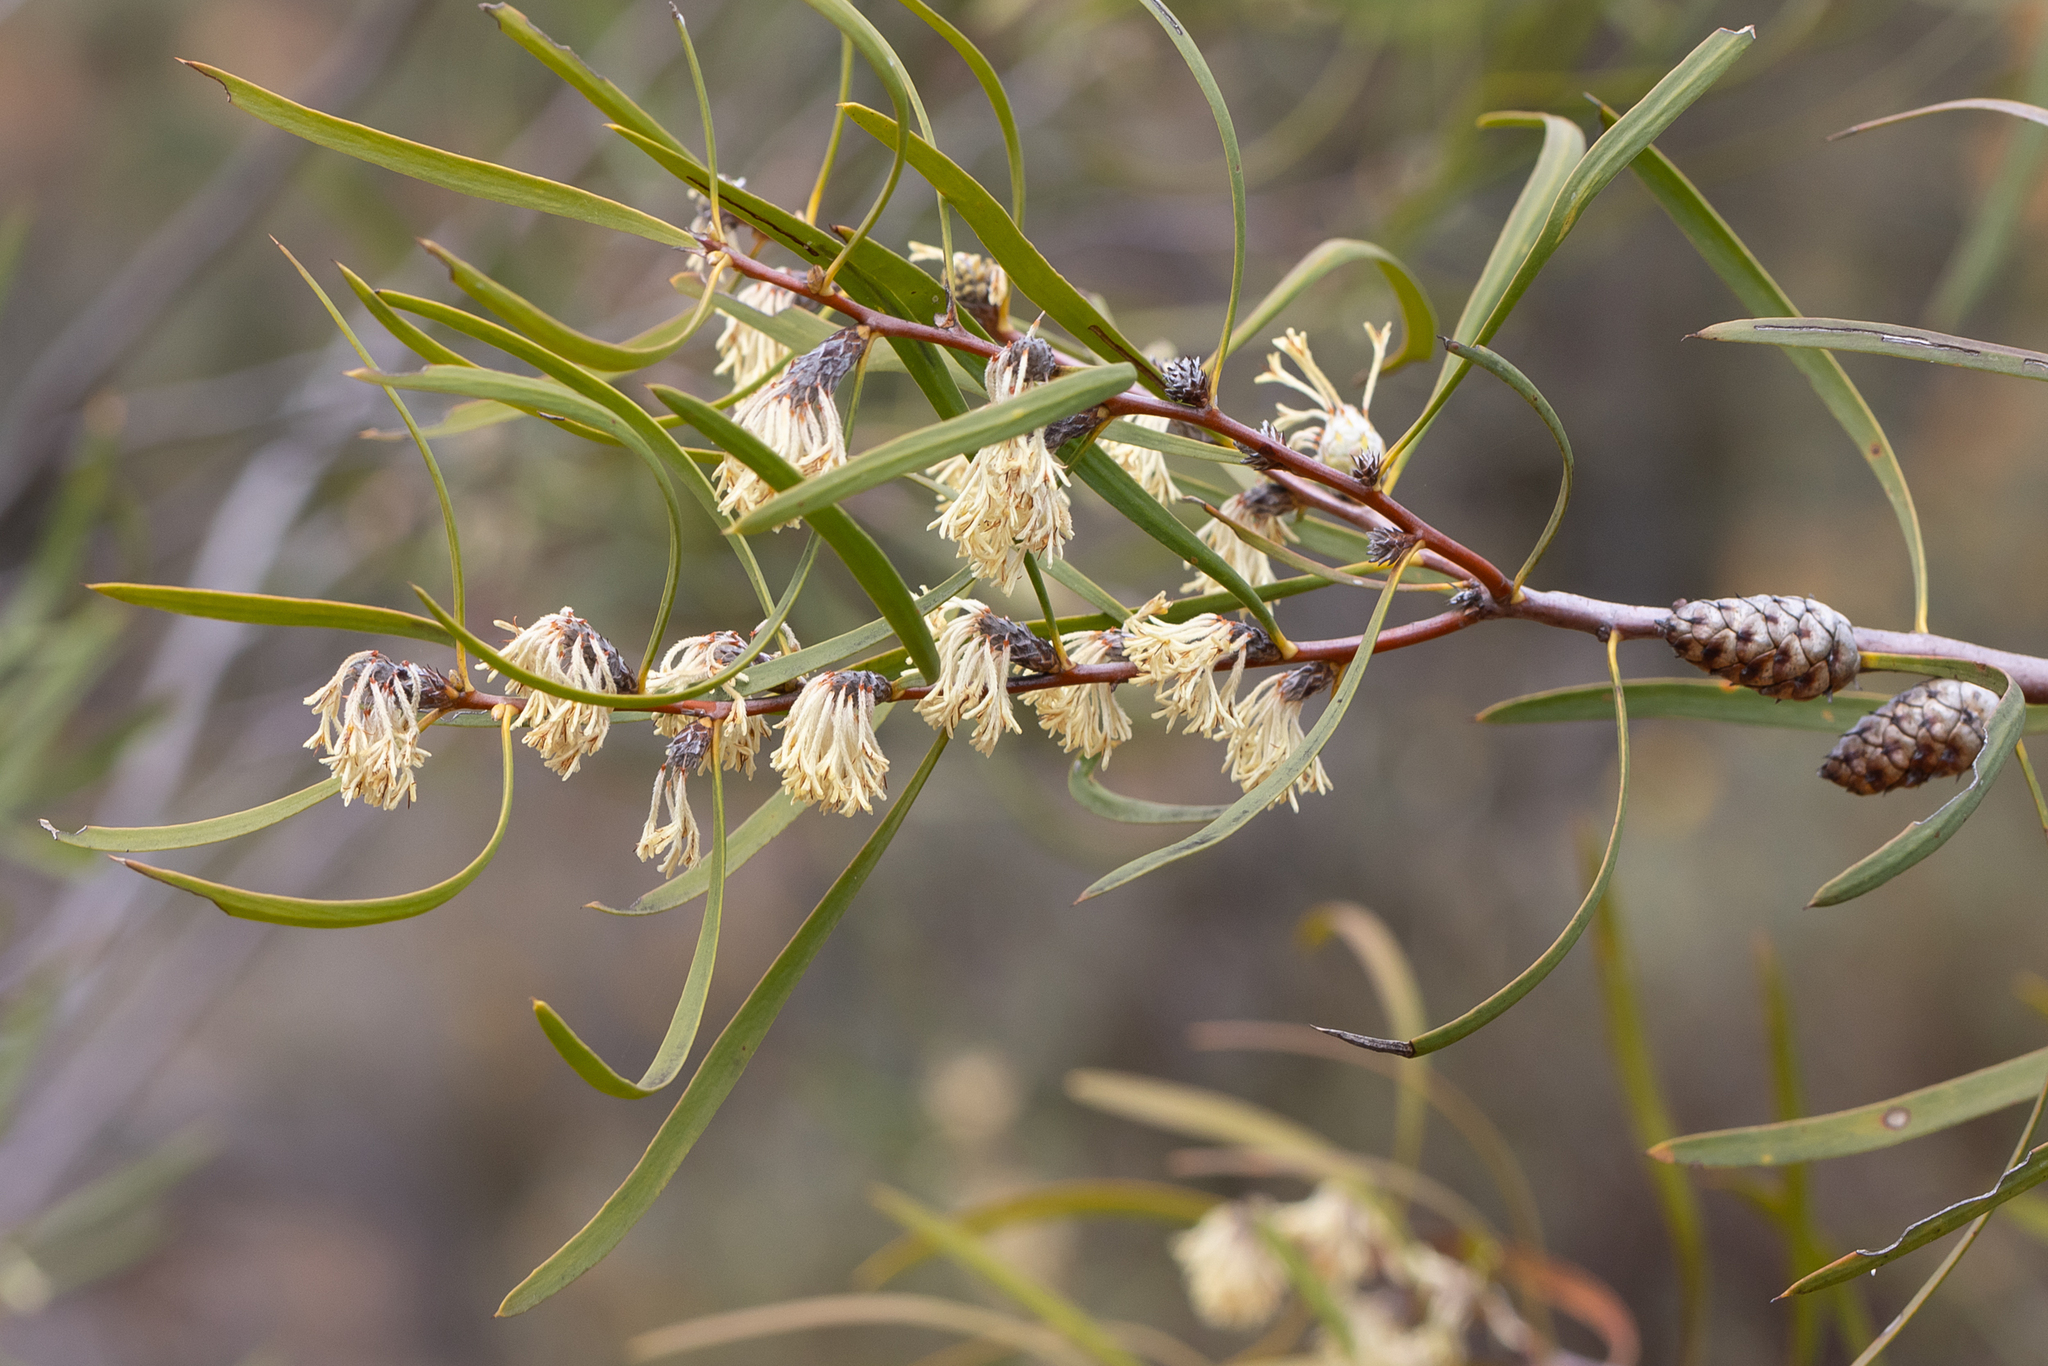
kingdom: Plantae
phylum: Tracheophyta
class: Magnoliopsida
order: Proteales
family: Proteaceae
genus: Petrophile
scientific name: Petrophile heterophylla
